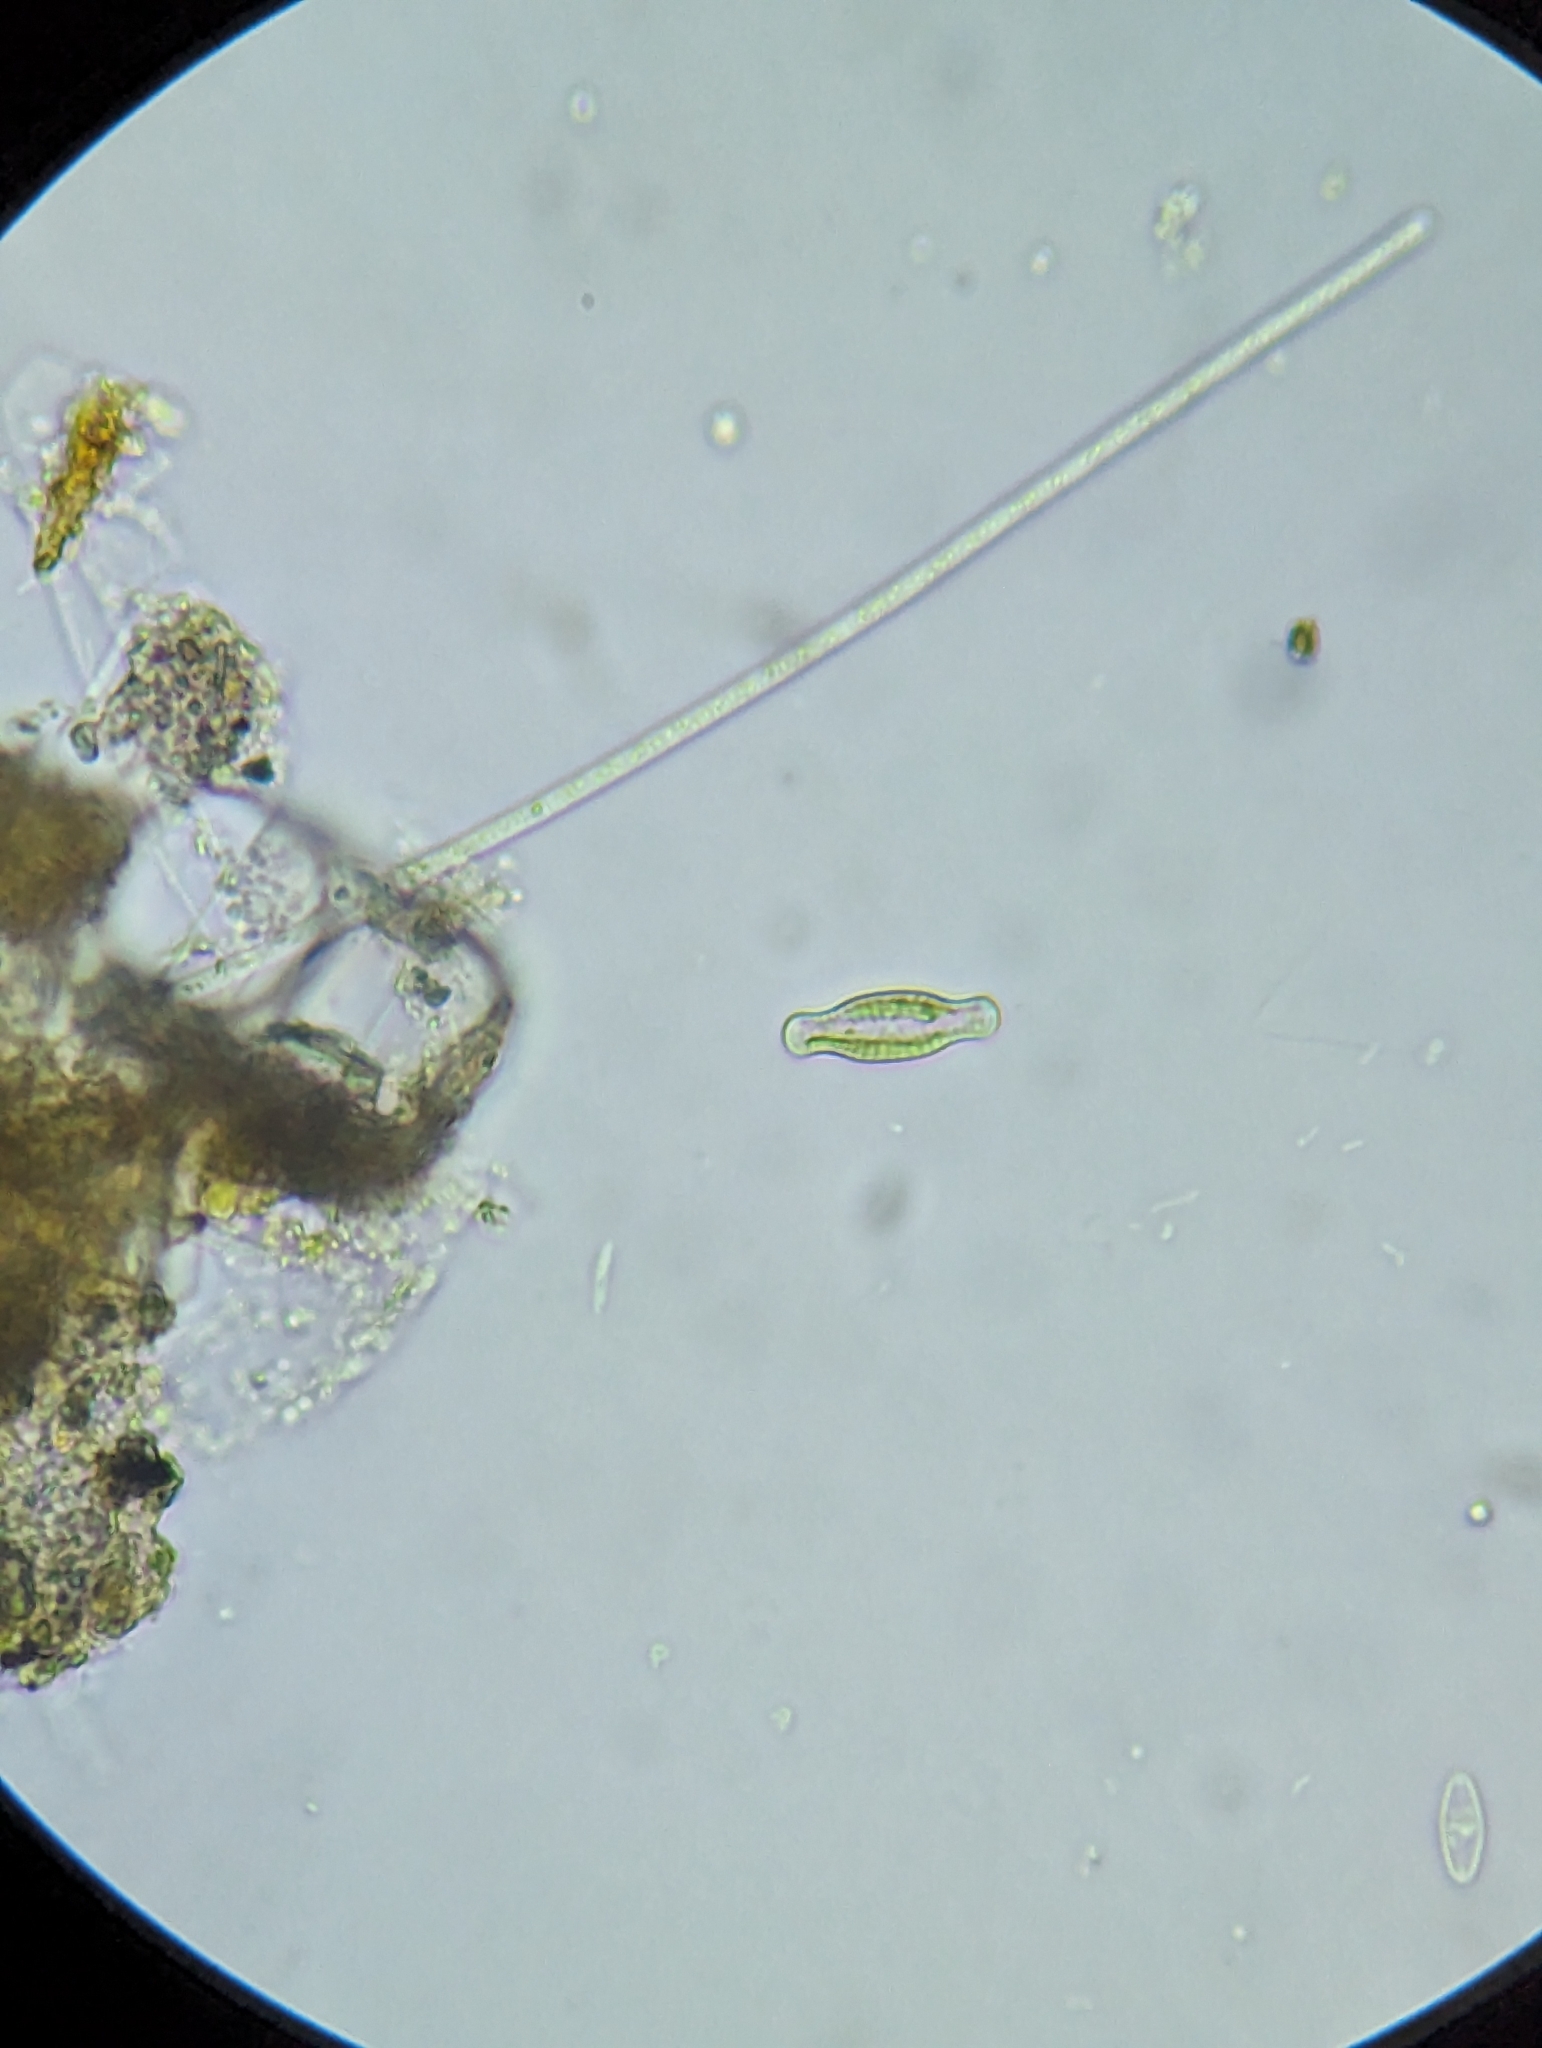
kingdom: Chromista
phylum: Ochrophyta
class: Bacillariophyceae
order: Naviculales
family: Naviculaceae
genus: Hippodonta
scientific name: Hippodonta capitata
